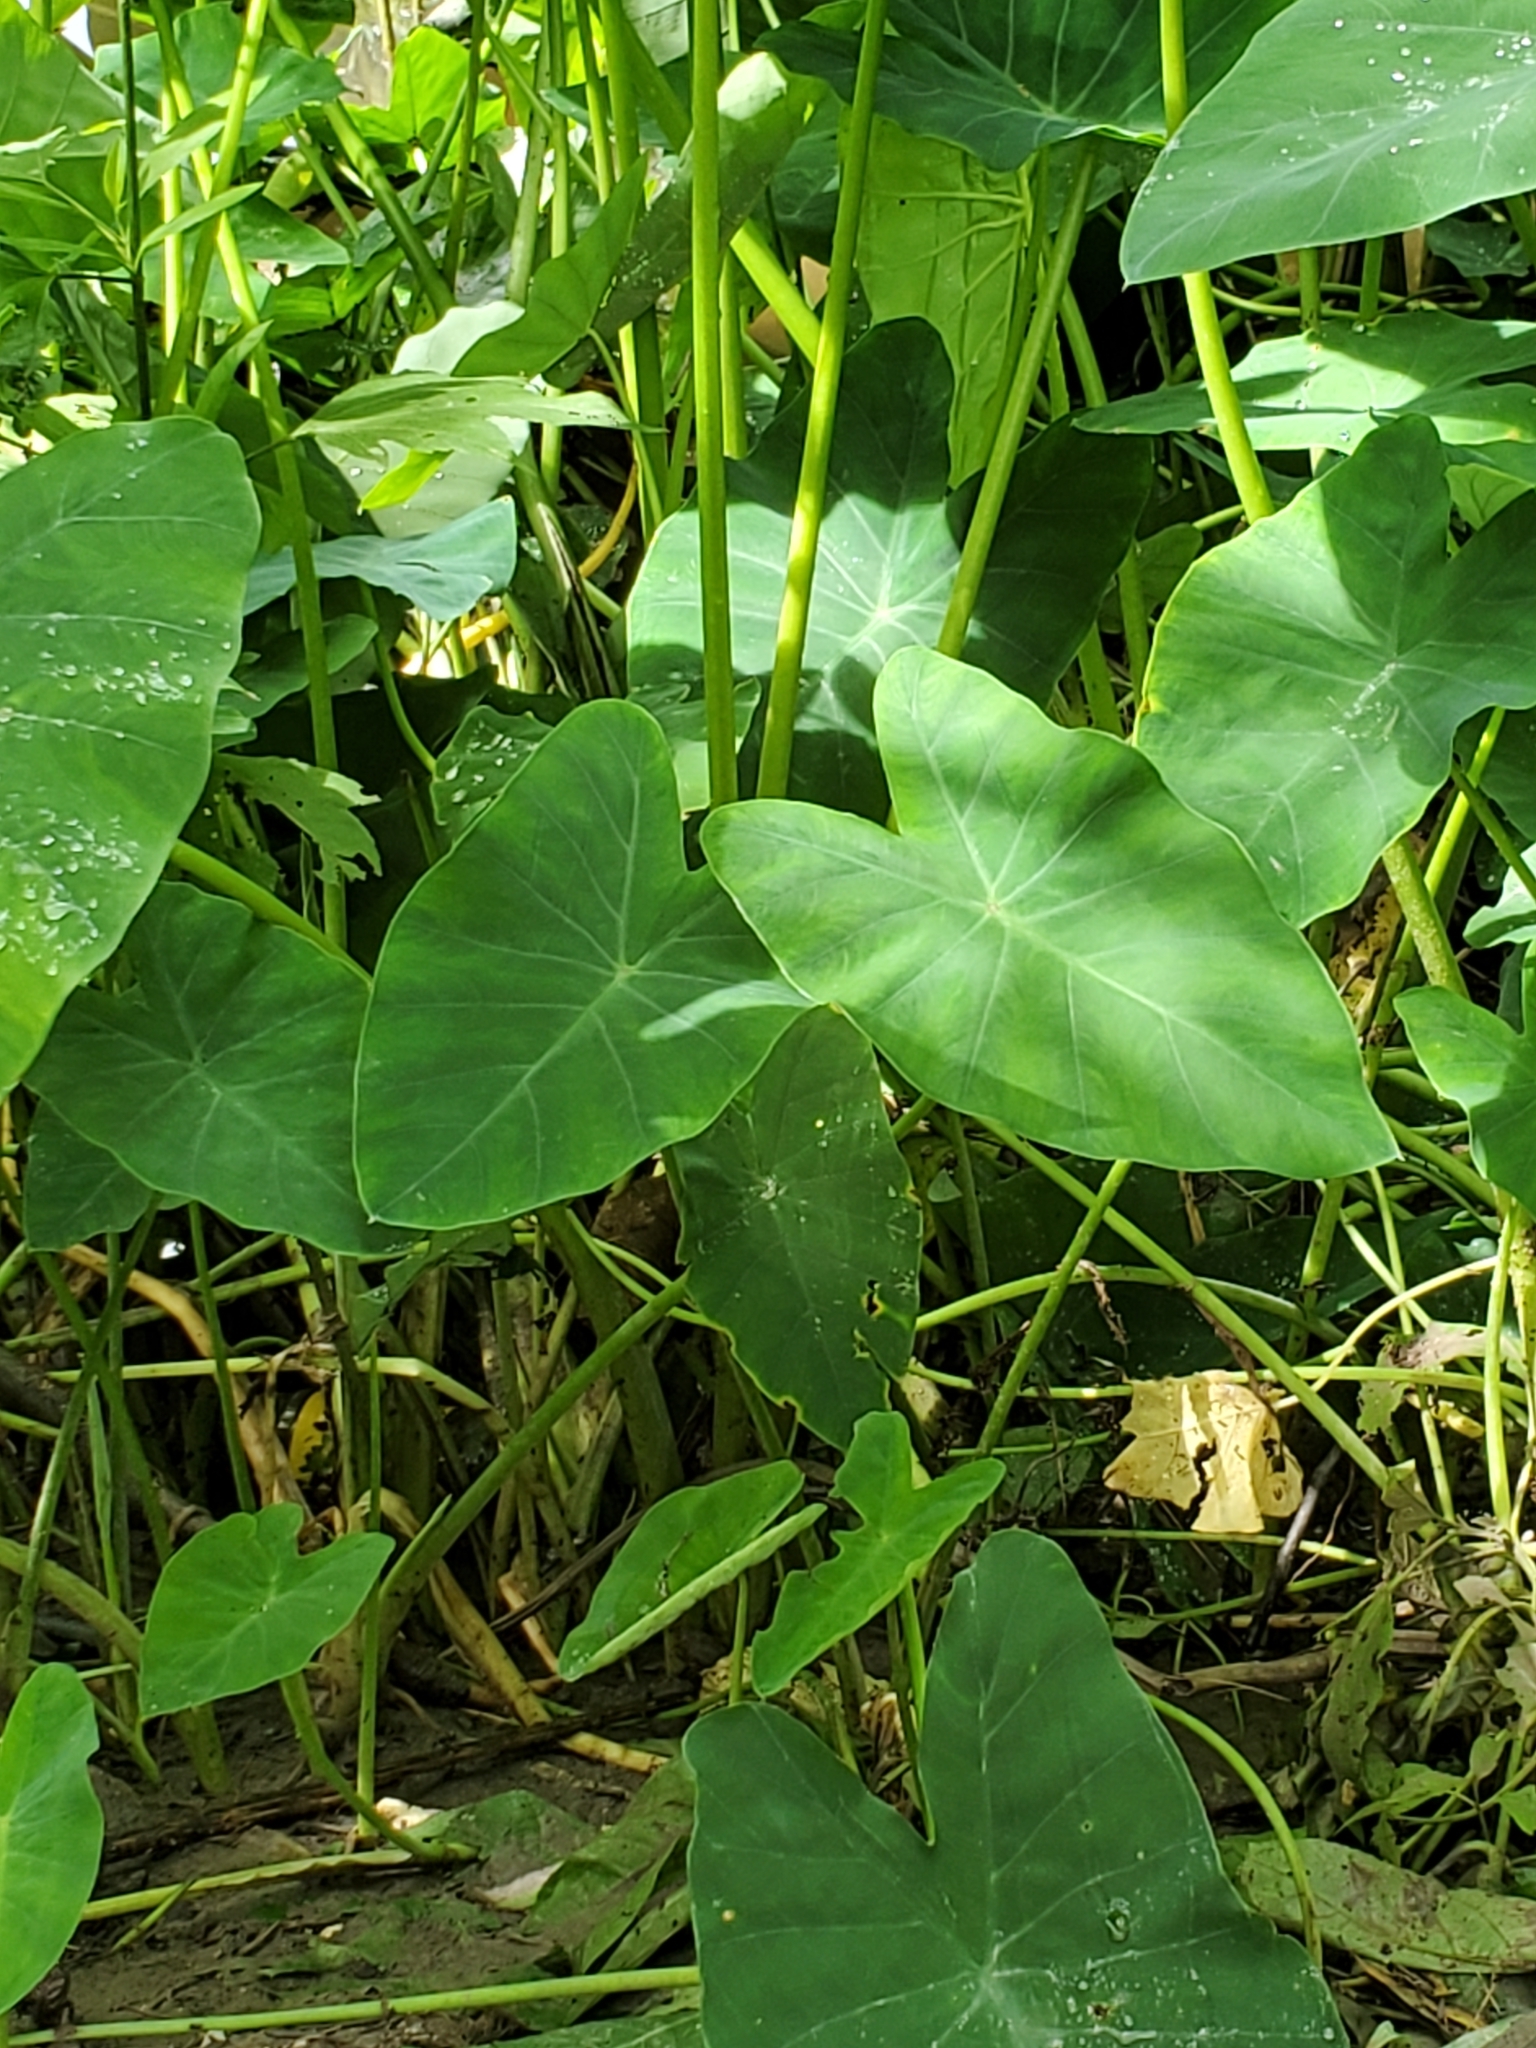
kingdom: Plantae
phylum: Tracheophyta
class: Liliopsida
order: Alismatales
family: Araceae
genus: Colocasia
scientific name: Colocasia esculenta
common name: Taro
